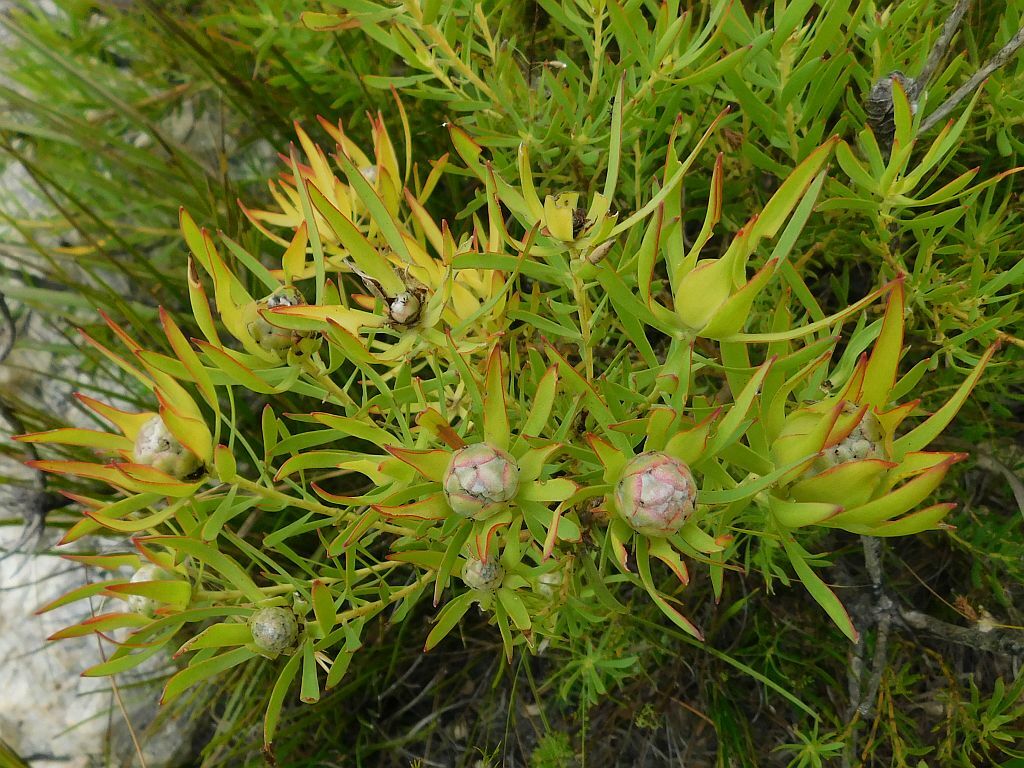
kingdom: Plantae
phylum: Tracheophyta
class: Magnoliopsida
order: Proteales
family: Proteaceae
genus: Leucadendron
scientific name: Leucadendron salignum
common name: Common sunshine conebush
